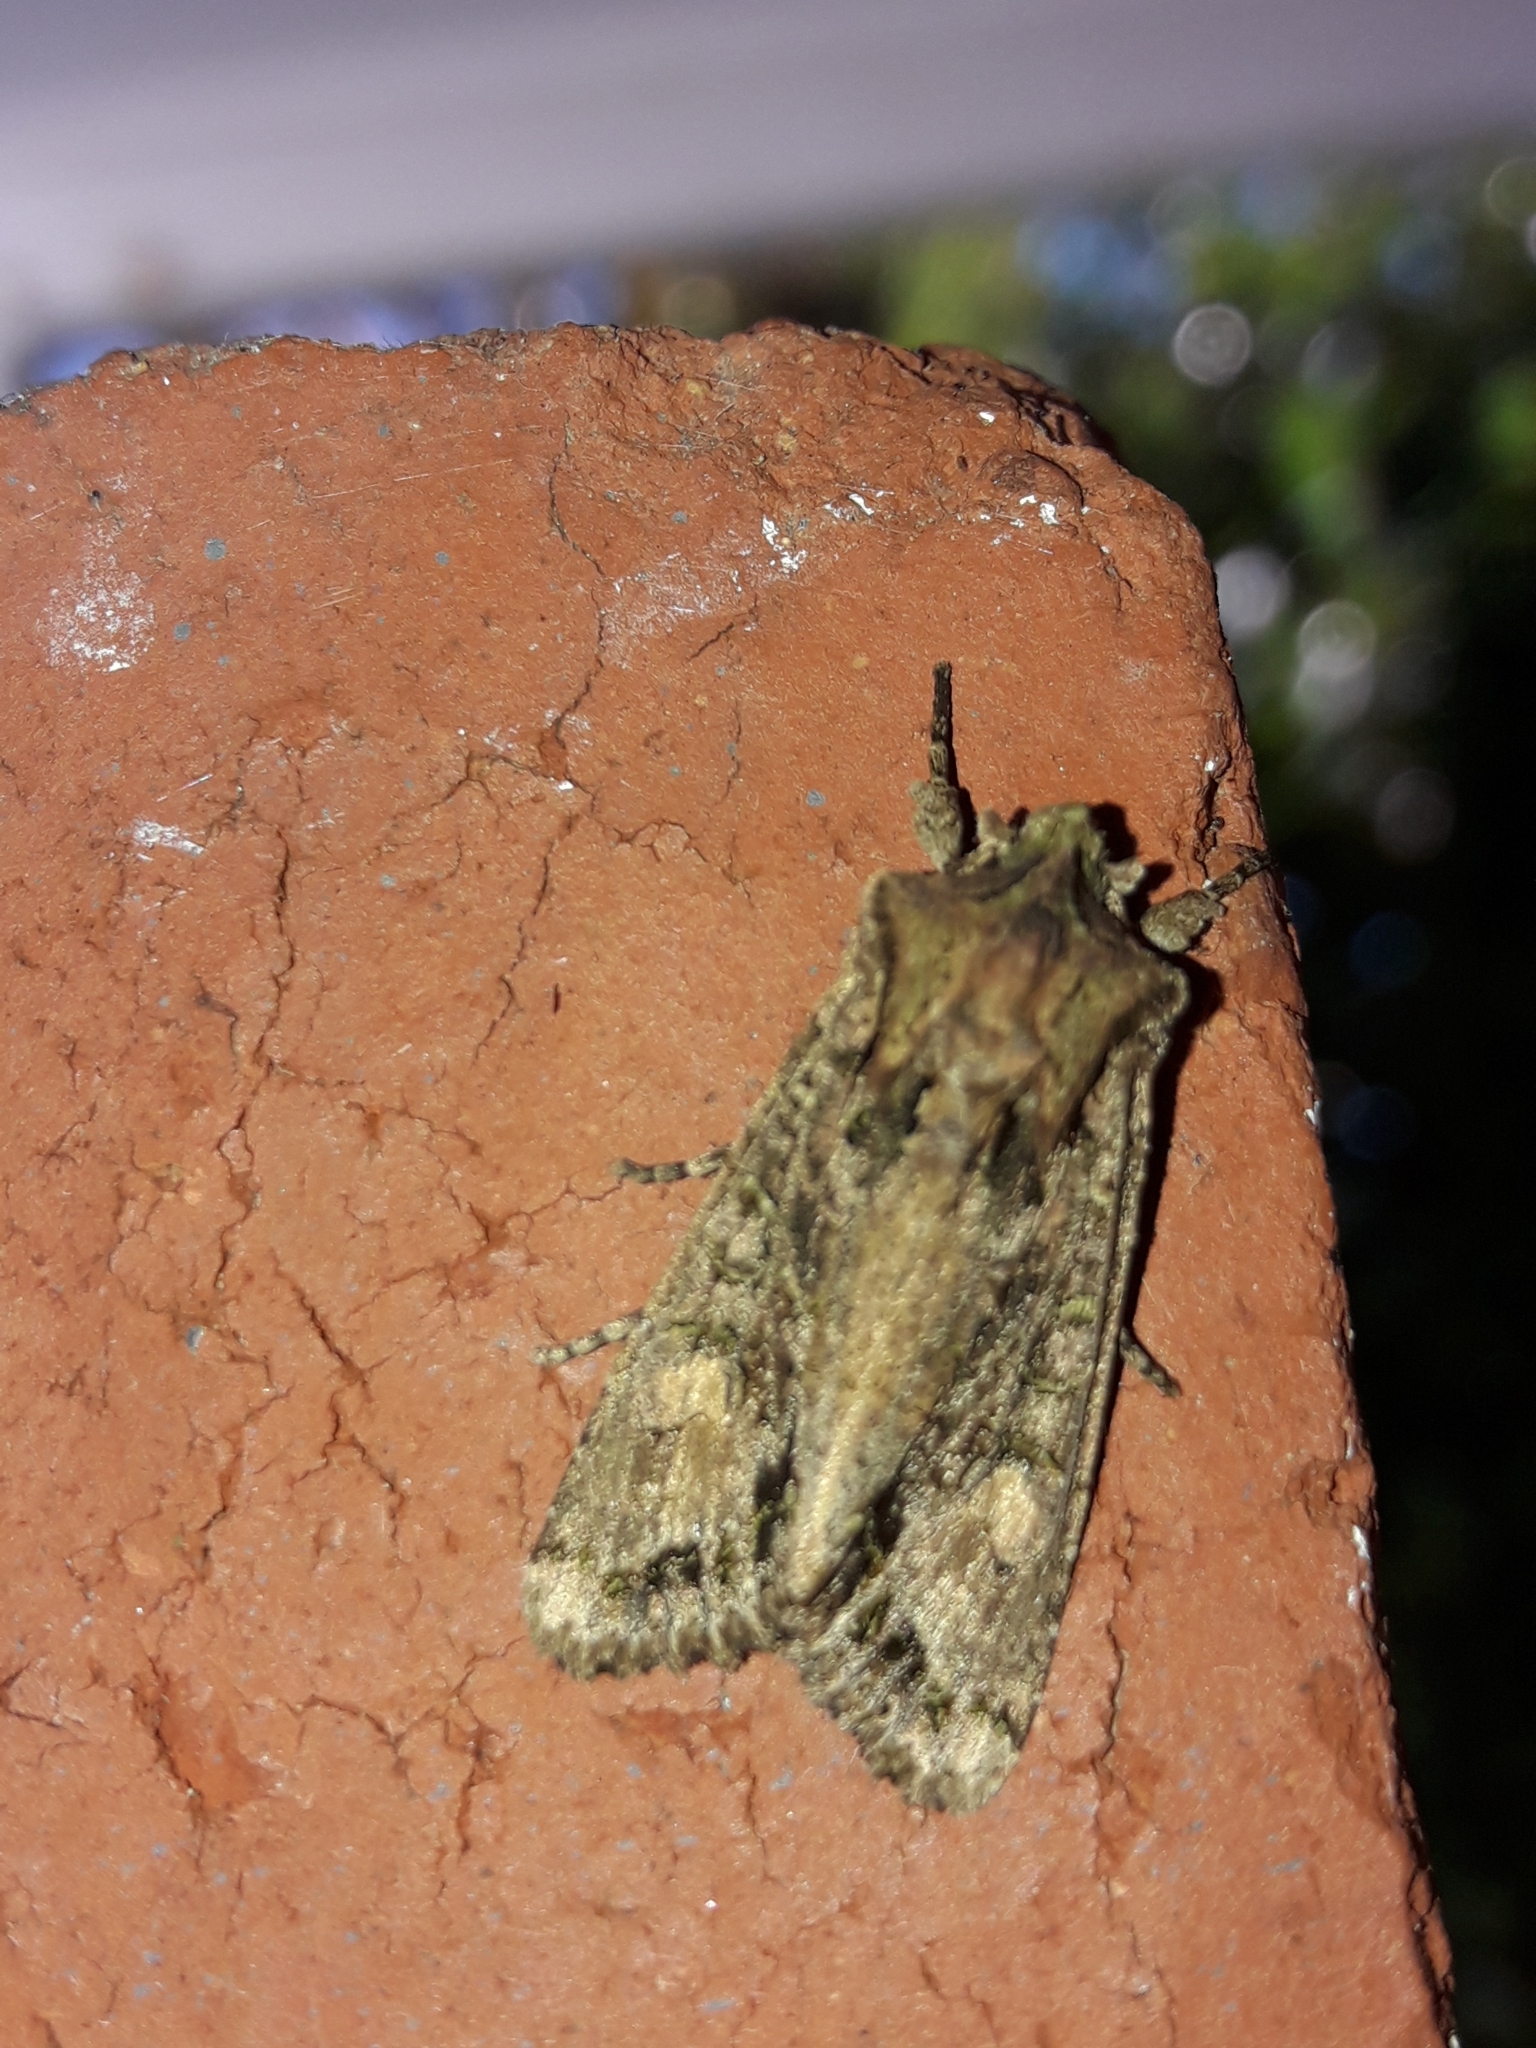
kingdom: Animalia
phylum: Arthropoda
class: Insecta
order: Lepidoptera
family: Noctuidae
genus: Ichneutica
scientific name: Ichneutica mutans
